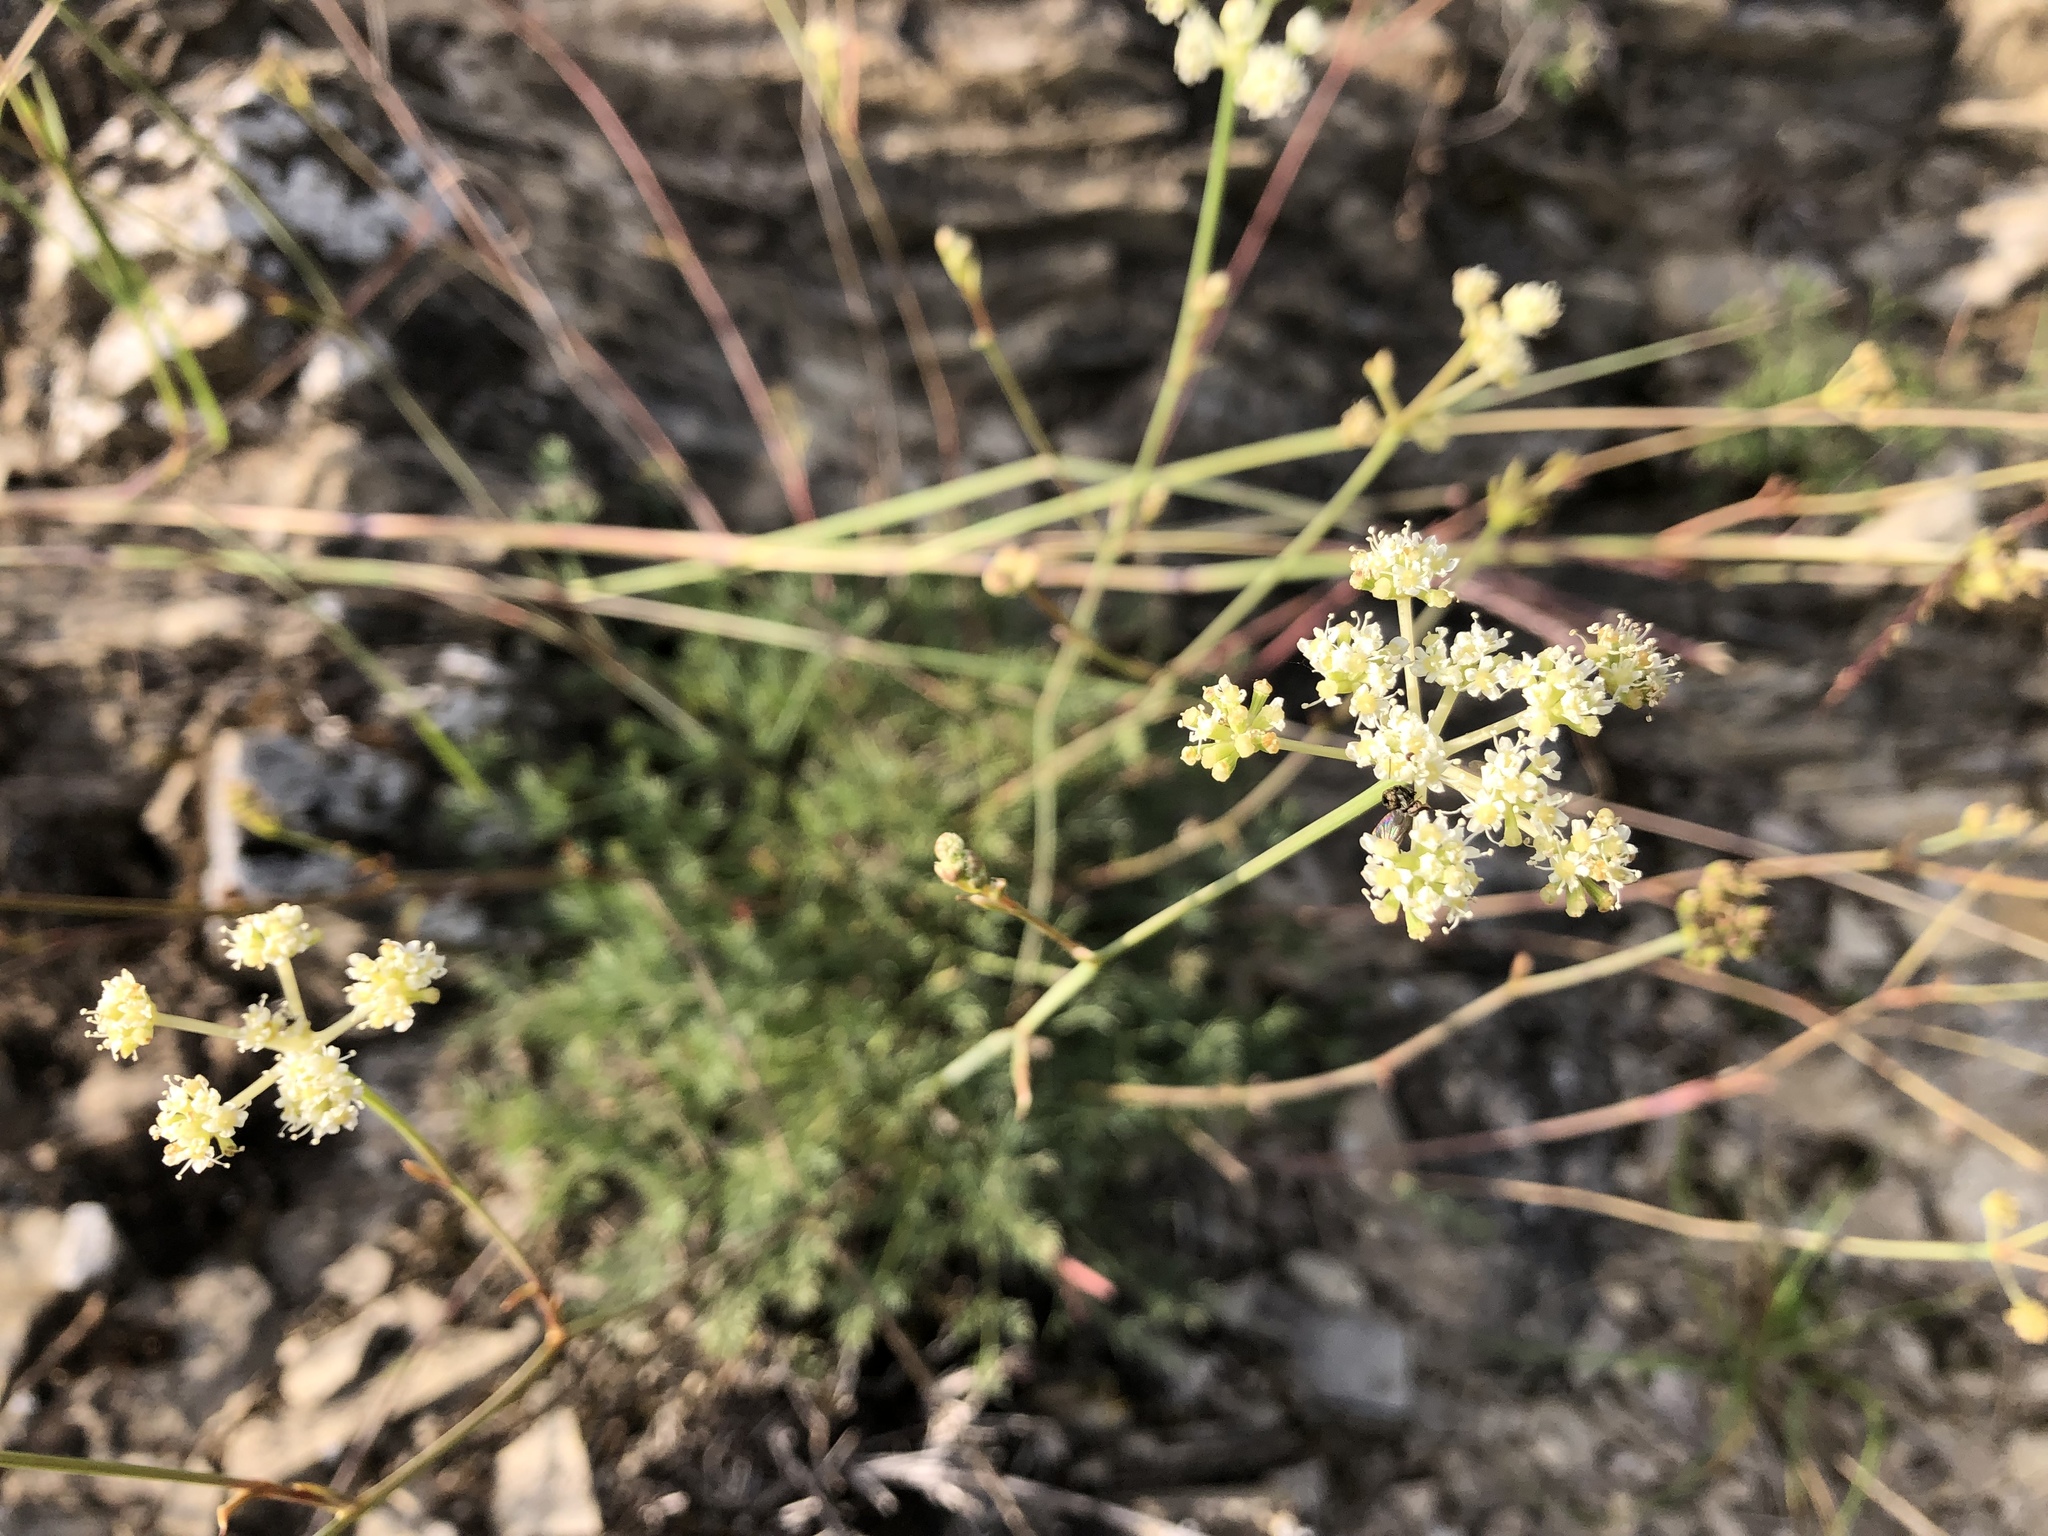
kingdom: Plantae
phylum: Tracheophyta
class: Magnoliopsida
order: Apiales
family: Apiaceae
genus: Hippomarathrum
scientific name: Hippomarathrum
